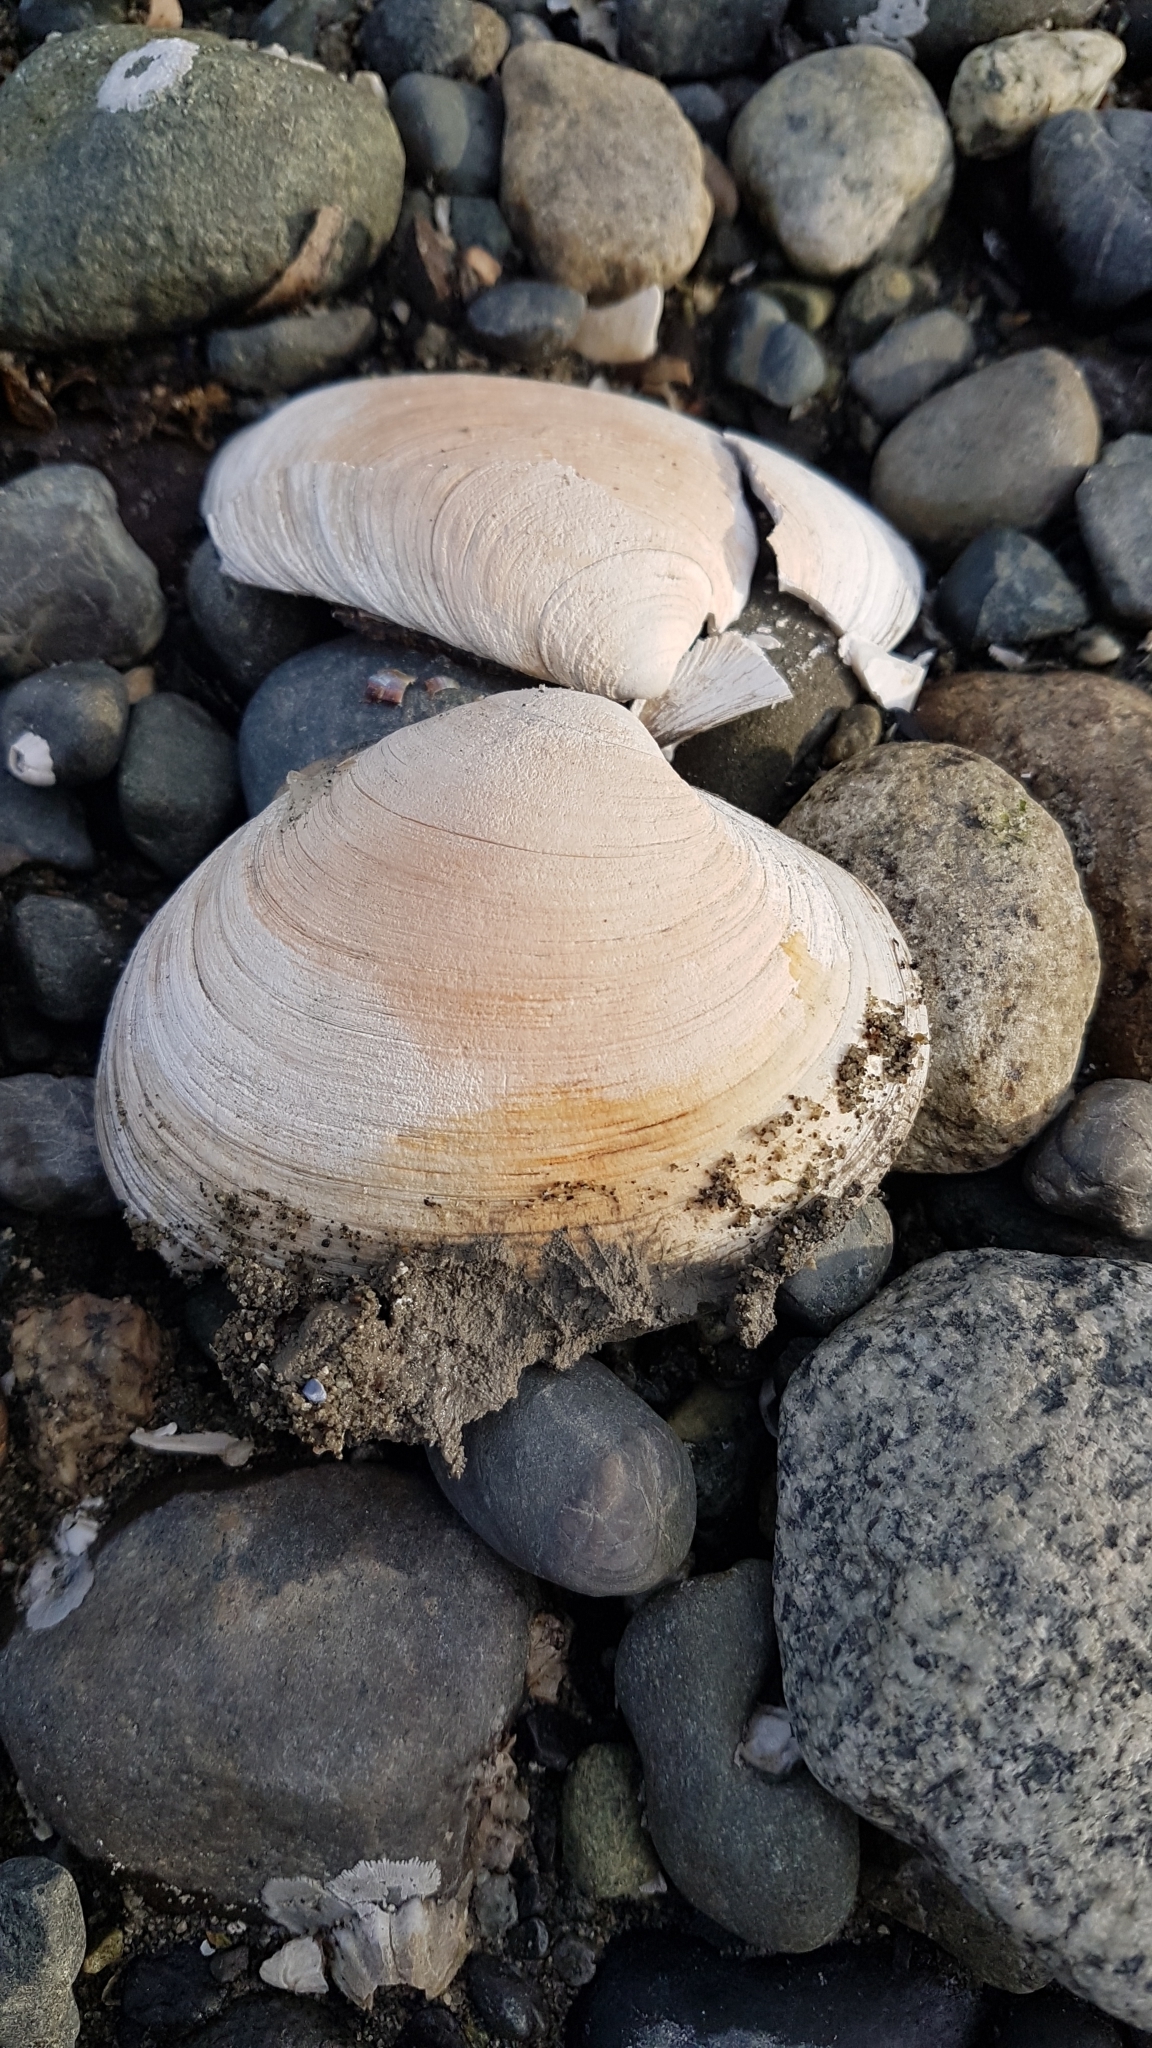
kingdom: Animalia
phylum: Mollusca
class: Bivalvia
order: Venerida
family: Veneridae
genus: Saxidomus
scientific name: Saxidomus gigantea
